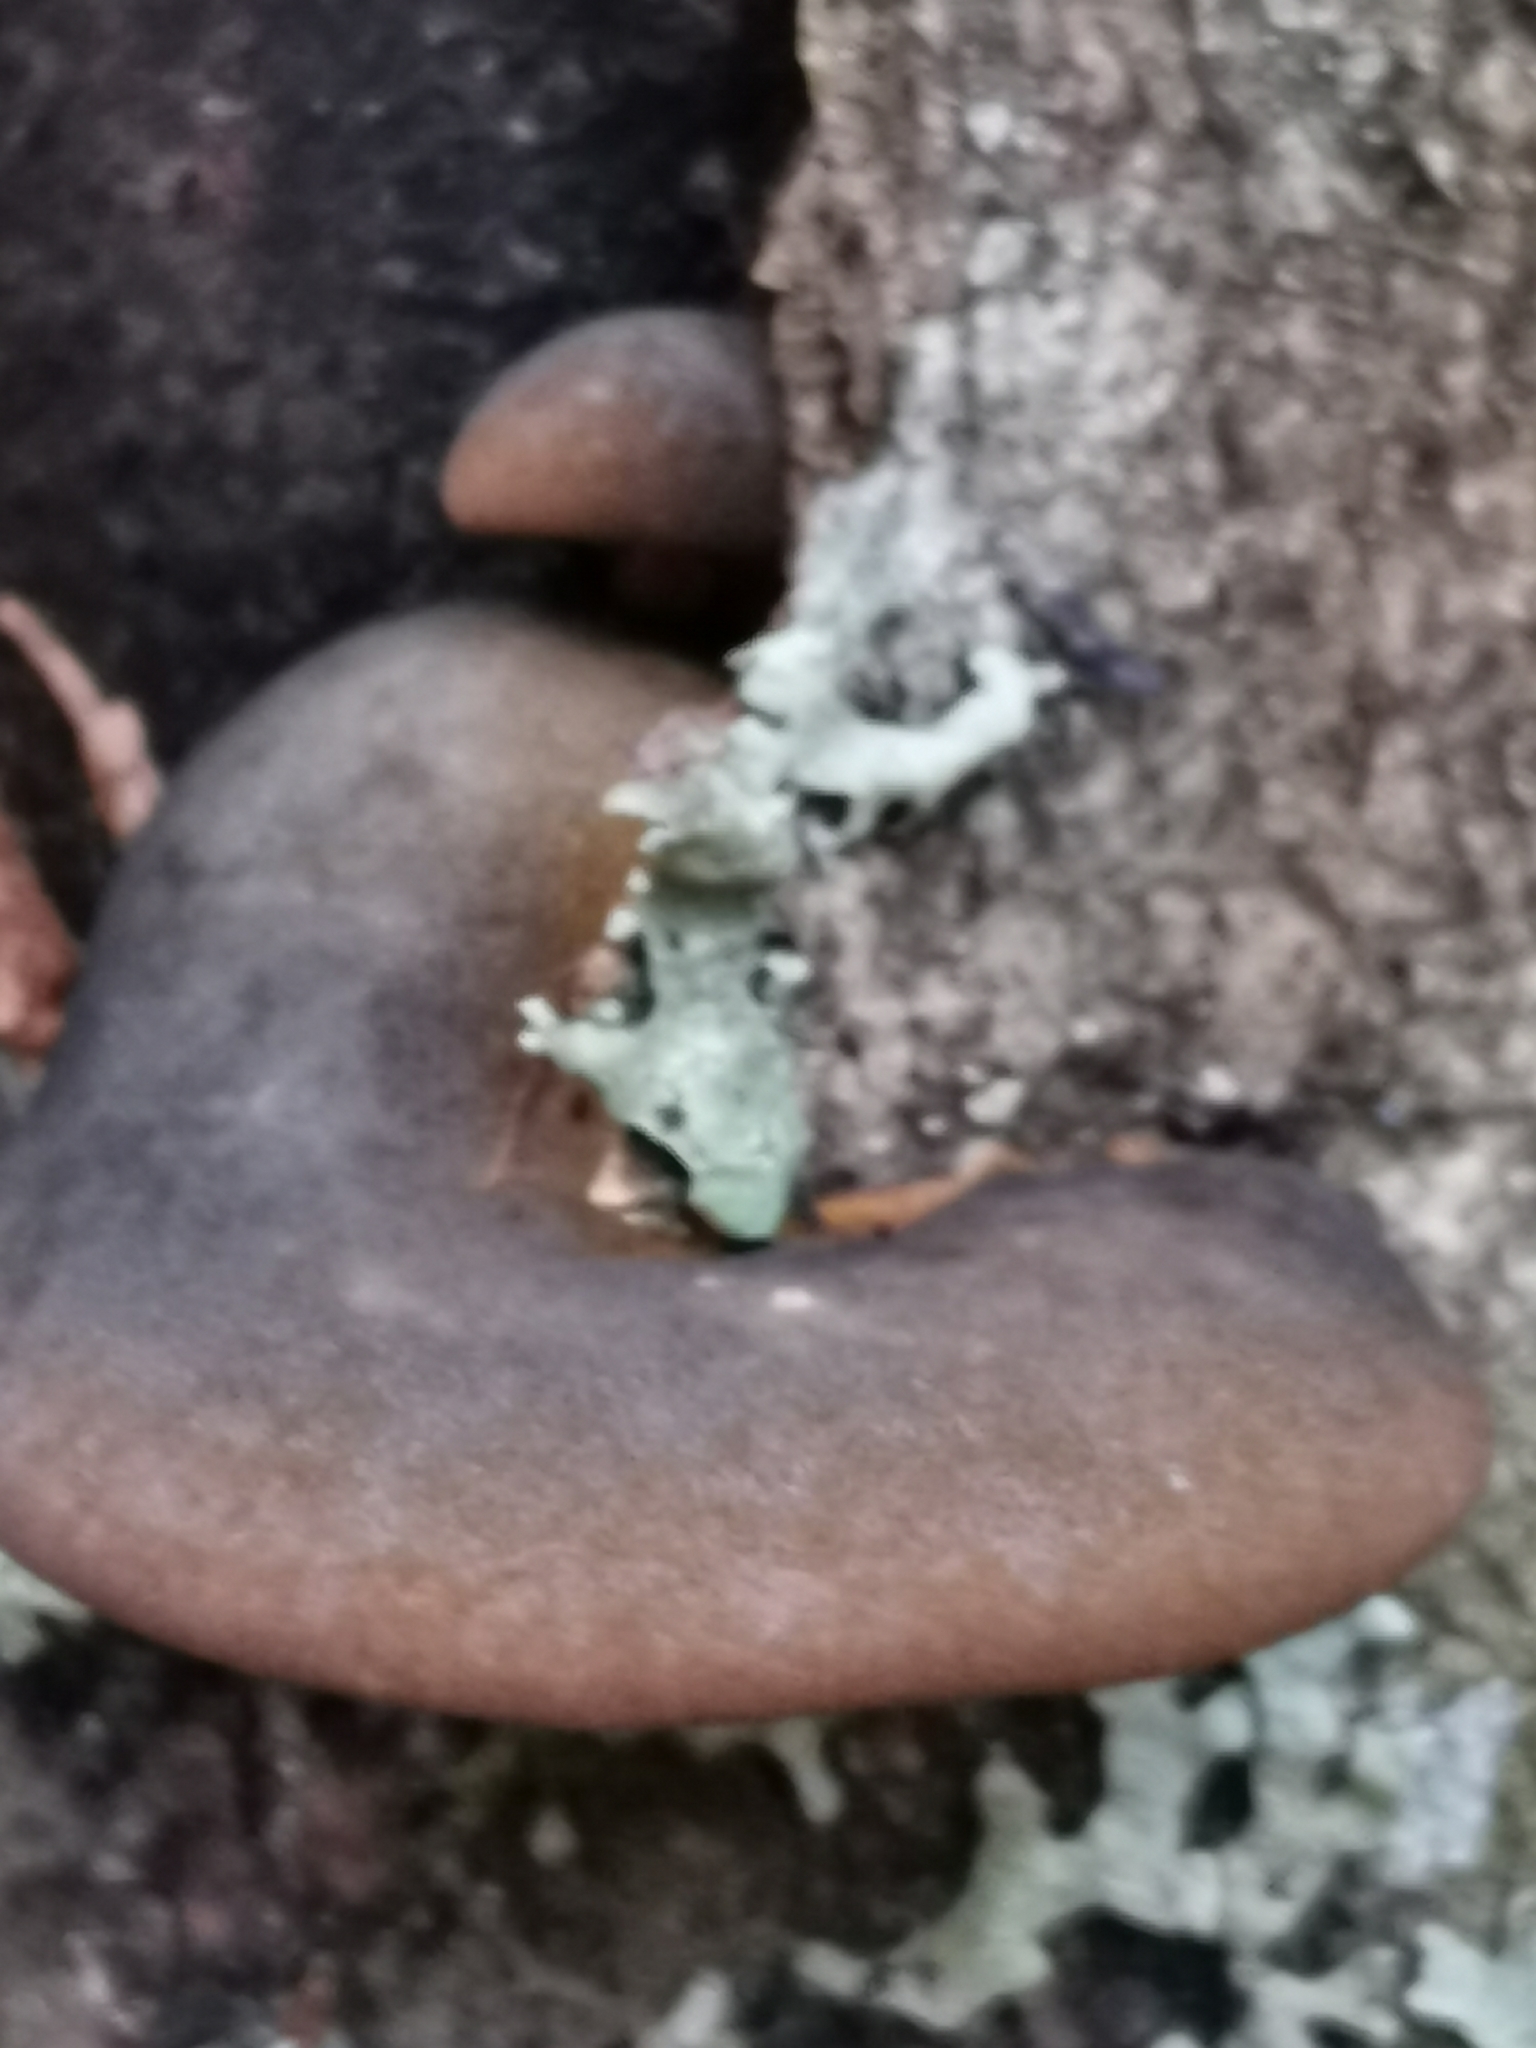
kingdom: Fungi
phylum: Basidiomycota
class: Agaricomycetes
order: Agaricales
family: Sarcomyxaceae
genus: Sarcomyxa
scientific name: Sarcomyxa serotina
